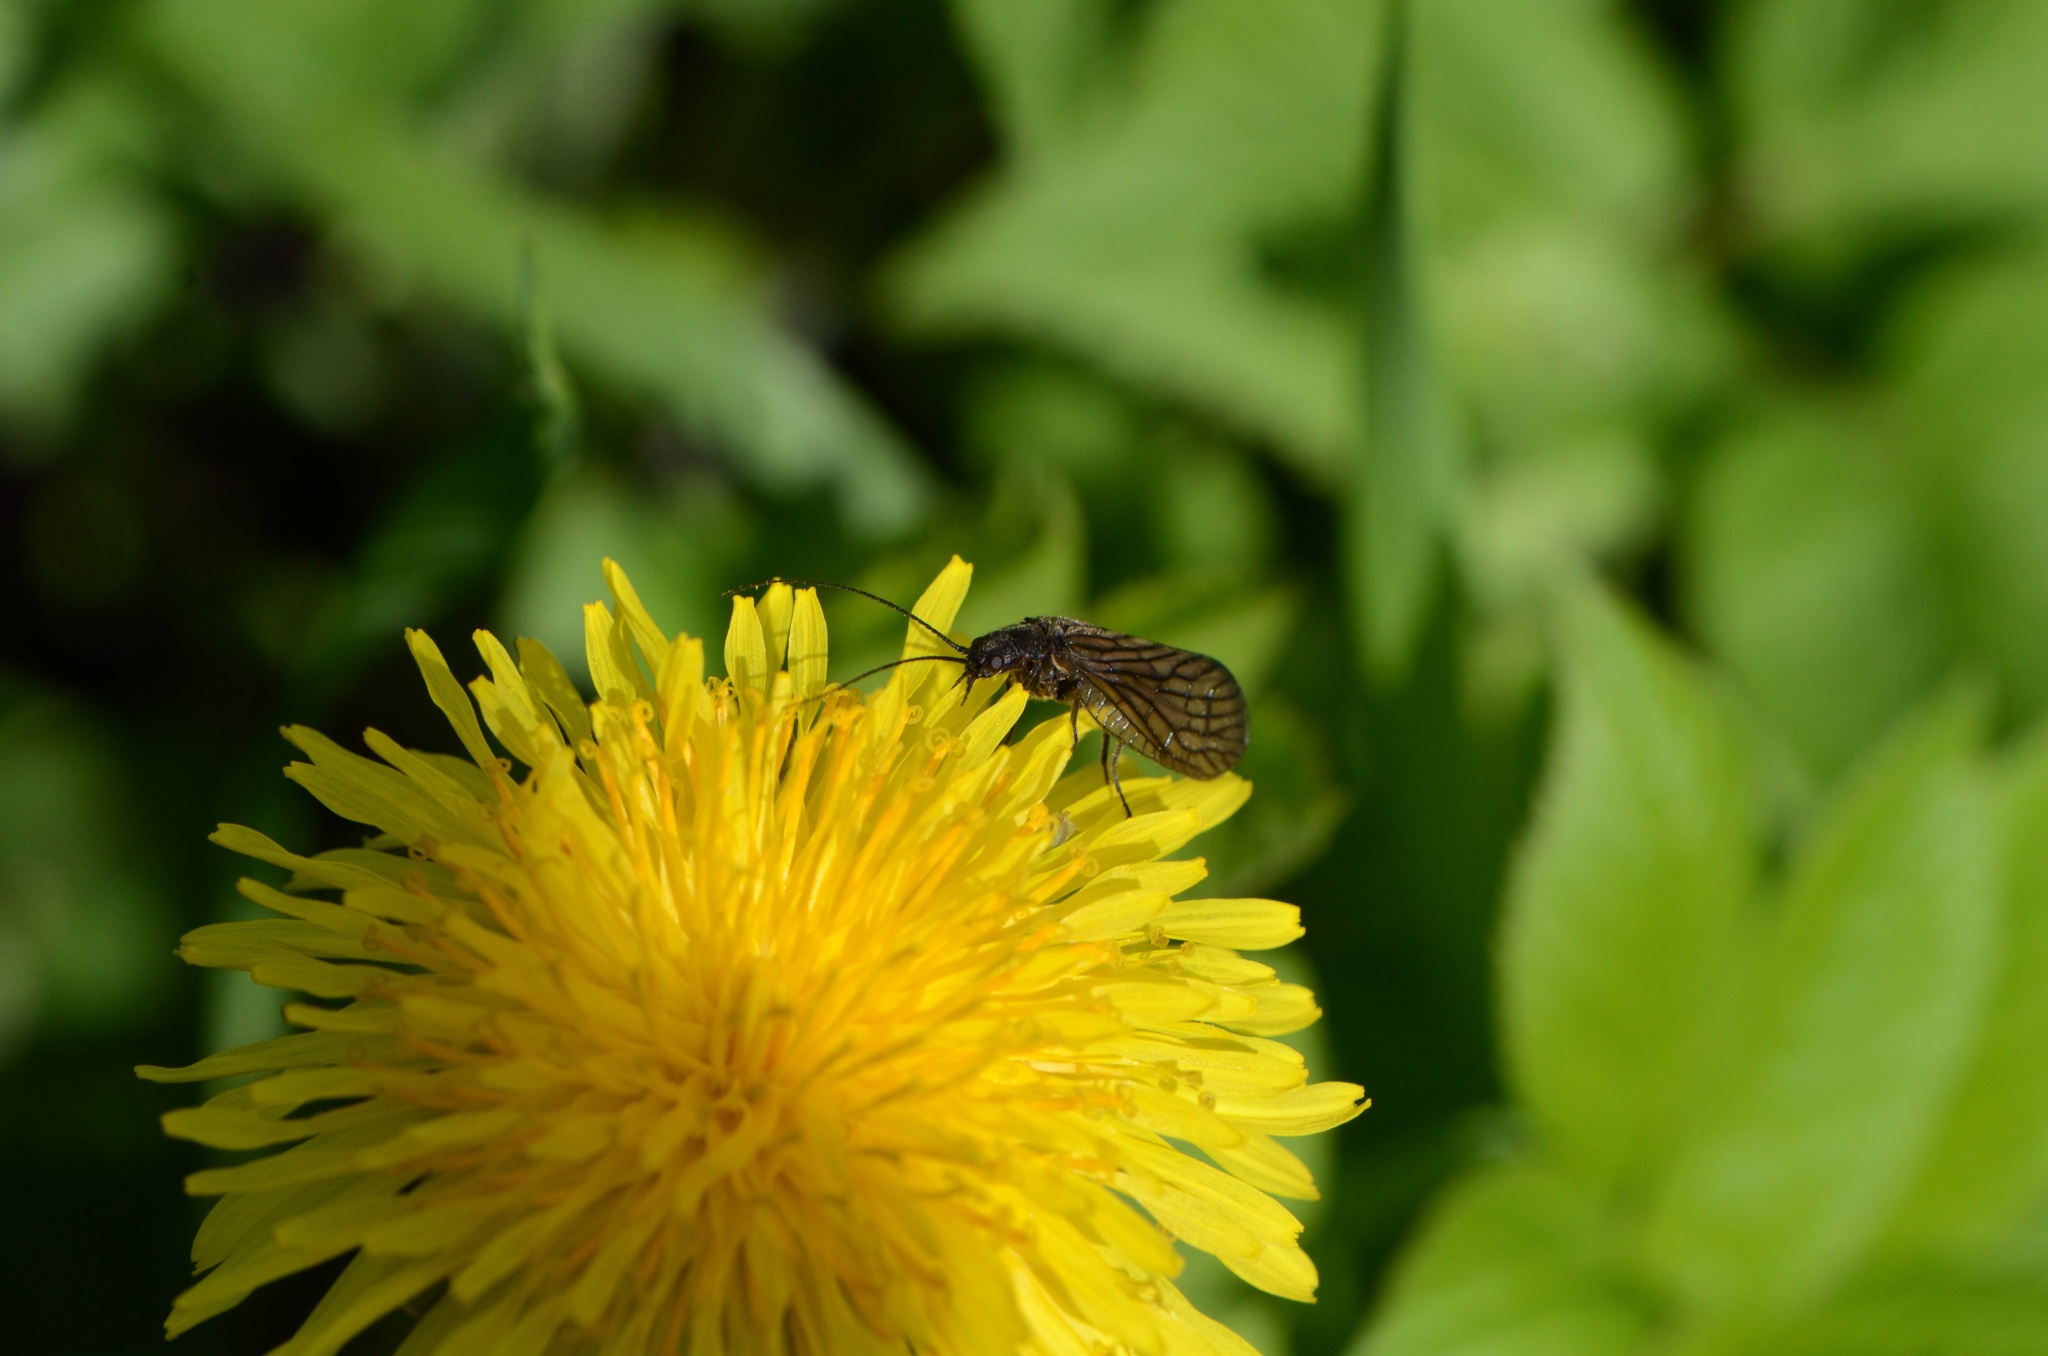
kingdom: Animalia
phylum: Arthropoda
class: Insecta
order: Megaloptera
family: Sialidae
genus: Sialis
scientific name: Sialis
